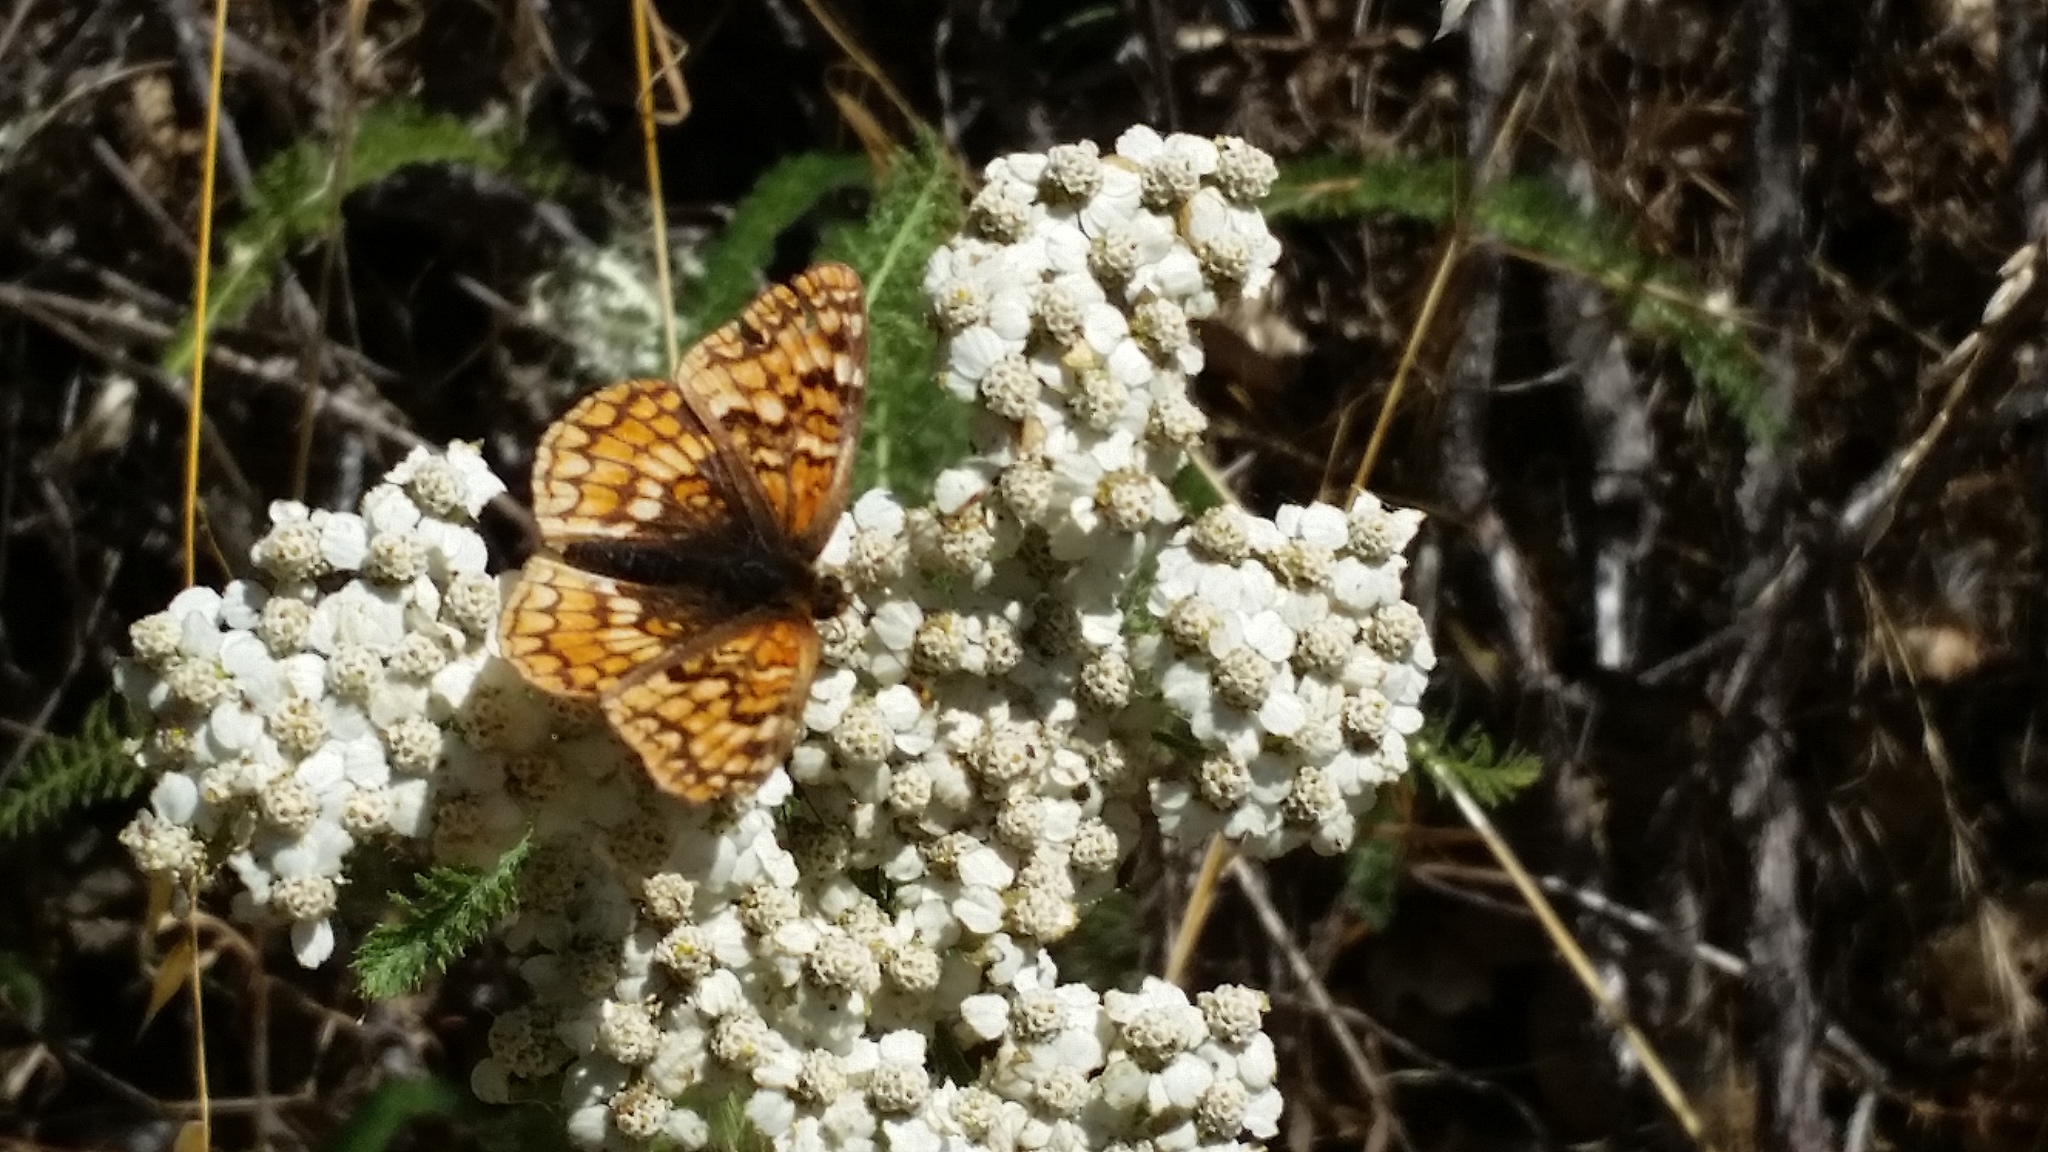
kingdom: Animalia
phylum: Arthropoda
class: Insecta
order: Lepidoptera
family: Nymphalidae
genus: Chlosyne
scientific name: Chlosyne palla
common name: Northern checkerspot
